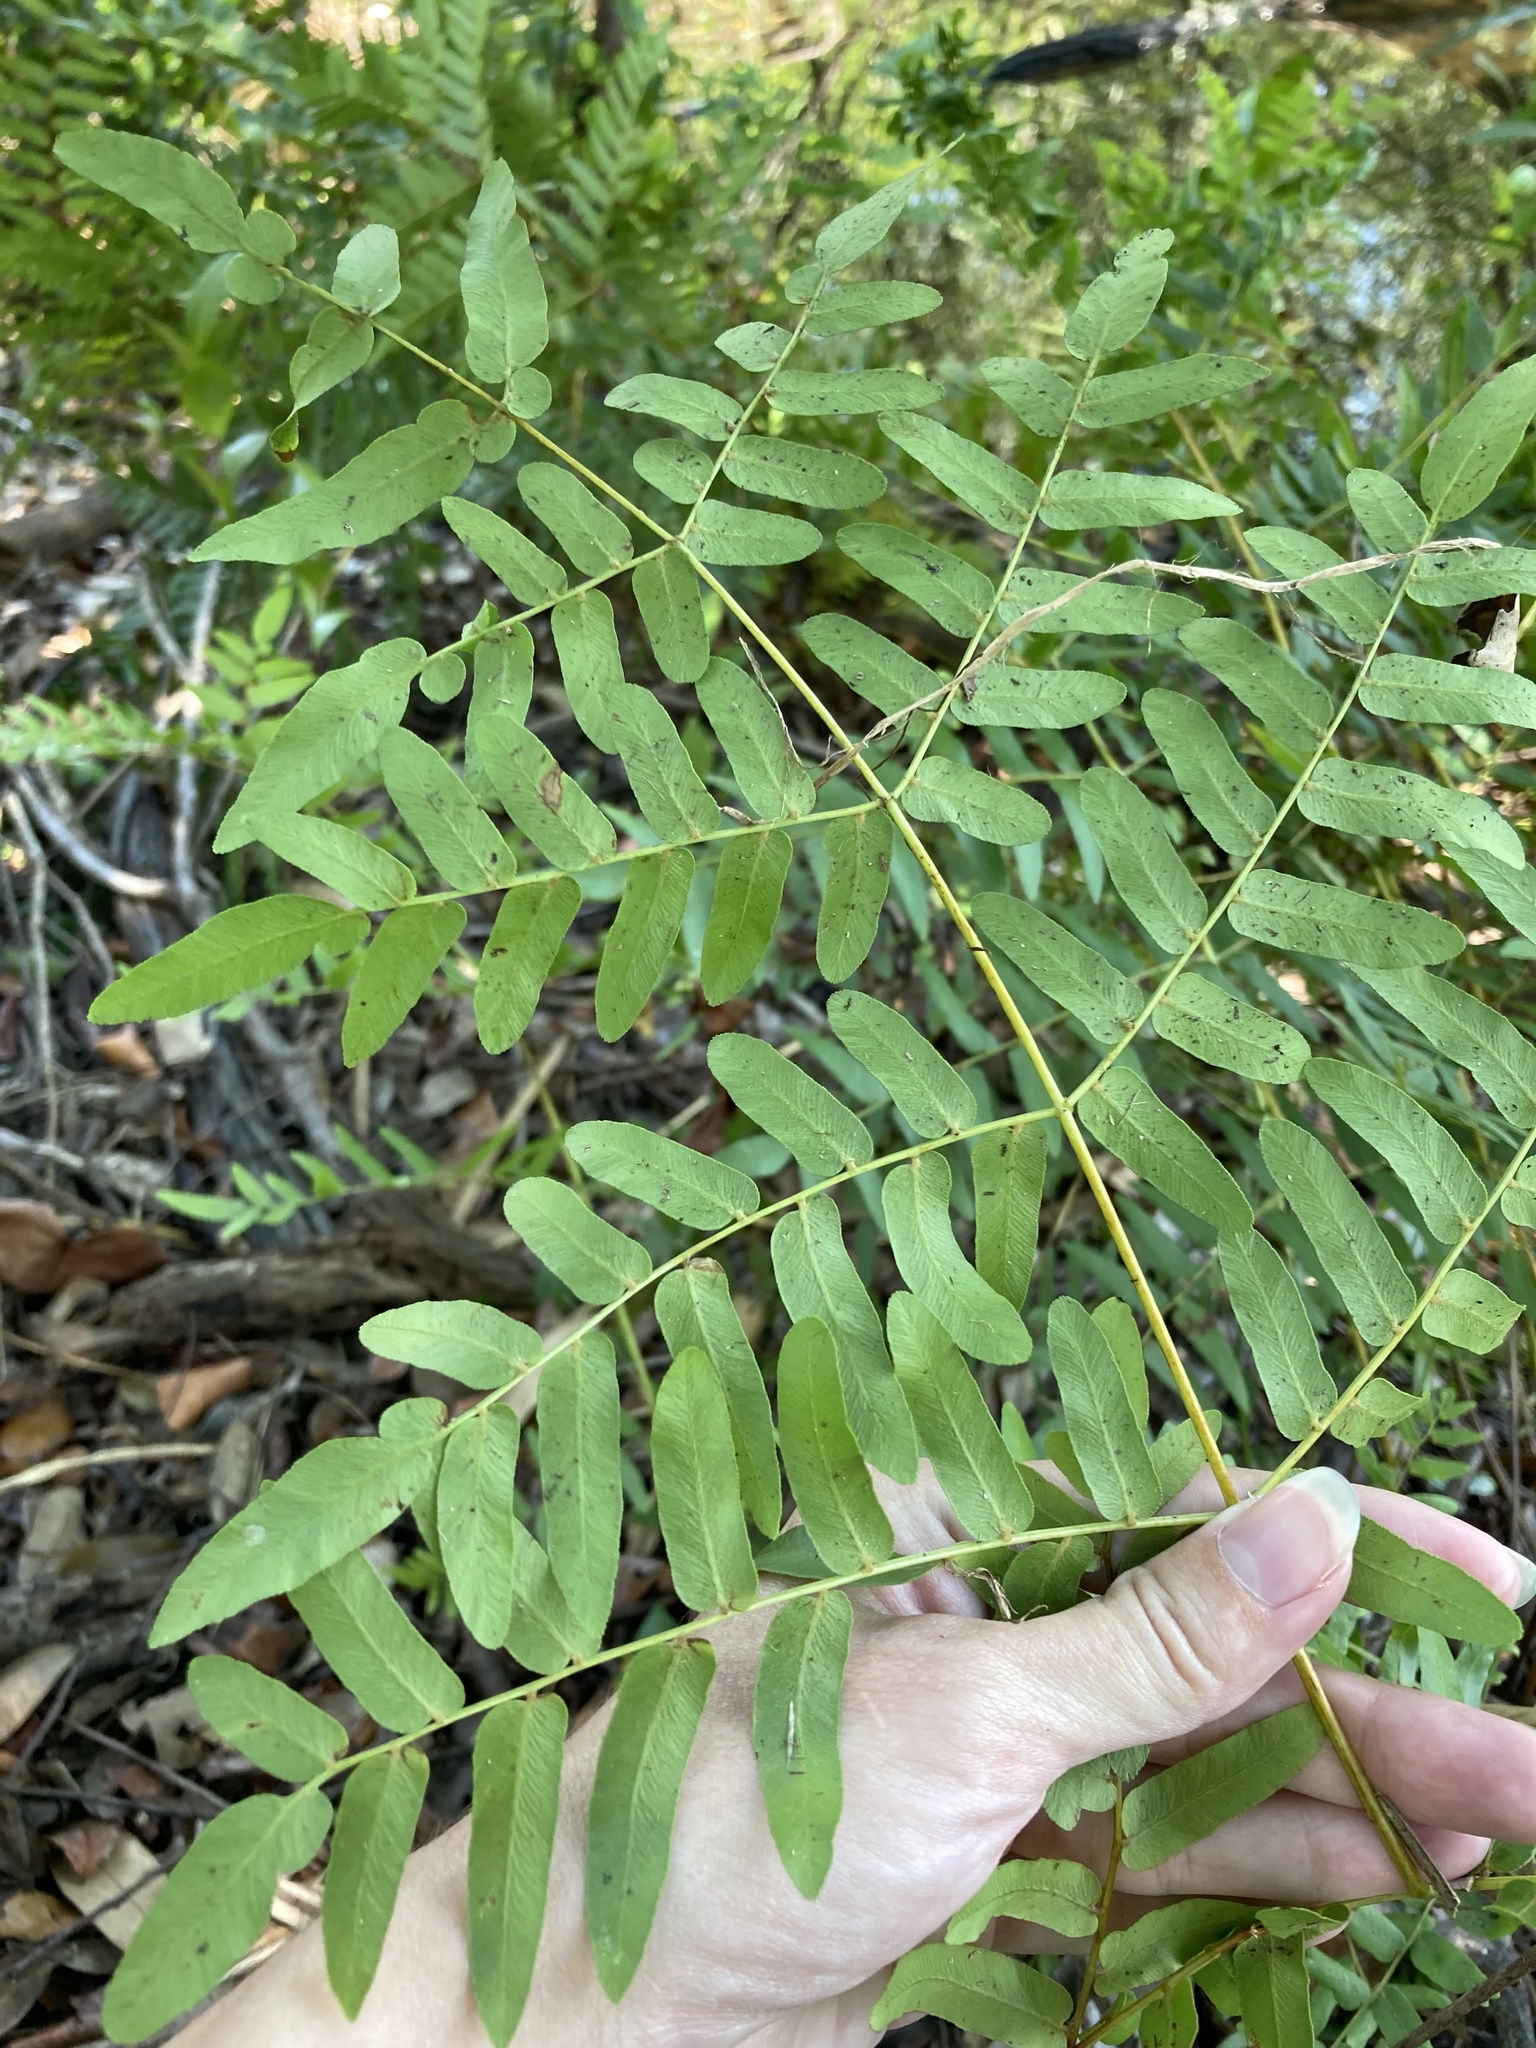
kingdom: Plantae
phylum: Tracheophyta
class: Polypodiopsida
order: Osmundales
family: Osmundaceae
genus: Osmunda
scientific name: Osmunda spectabilis
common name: American royal fern
